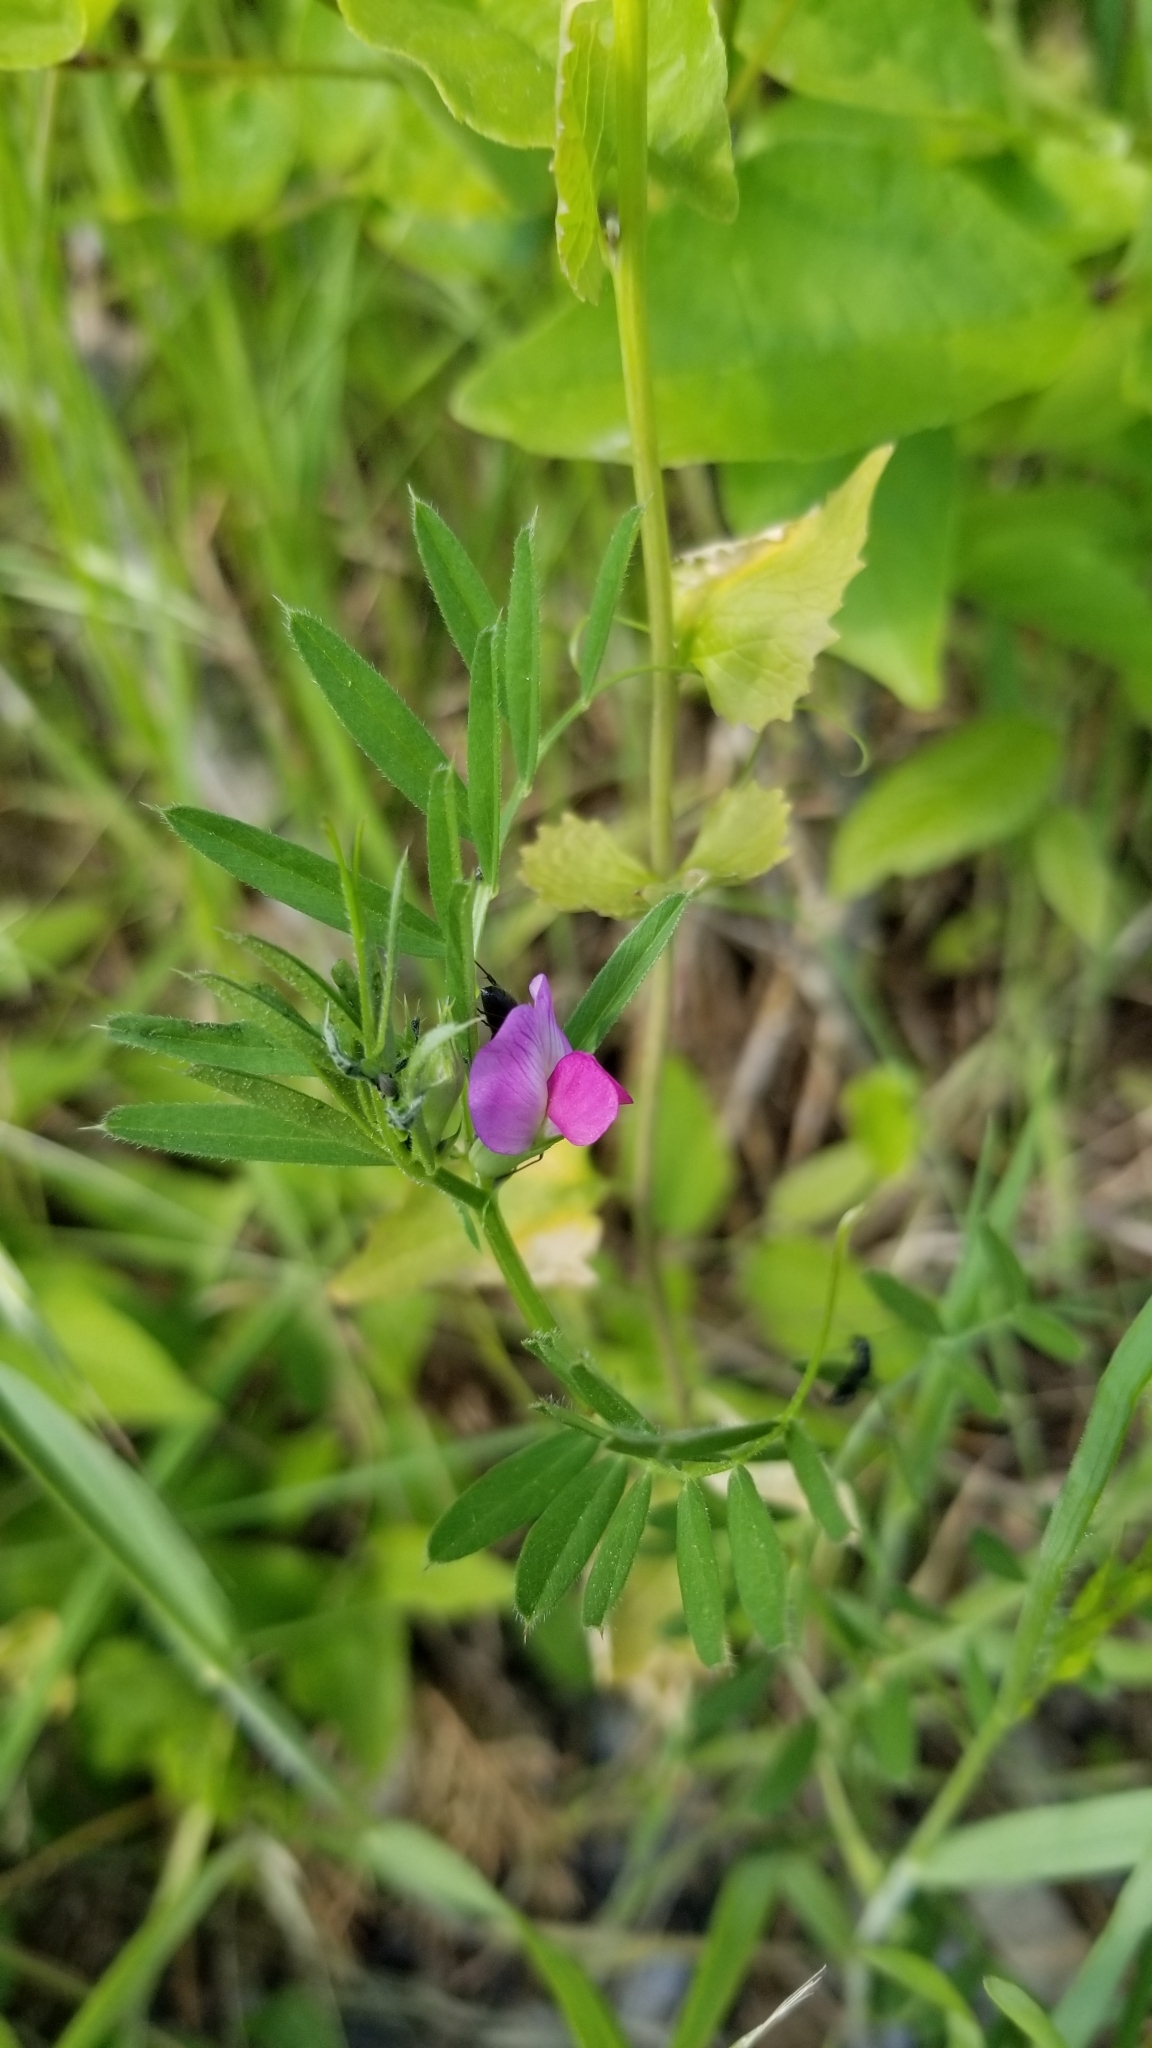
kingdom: Plantae
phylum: Tracheophyta
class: Magnoliopsida
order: Fabales
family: Fabaceae
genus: Vicia
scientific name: Vicia sativa
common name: Garden vetch
